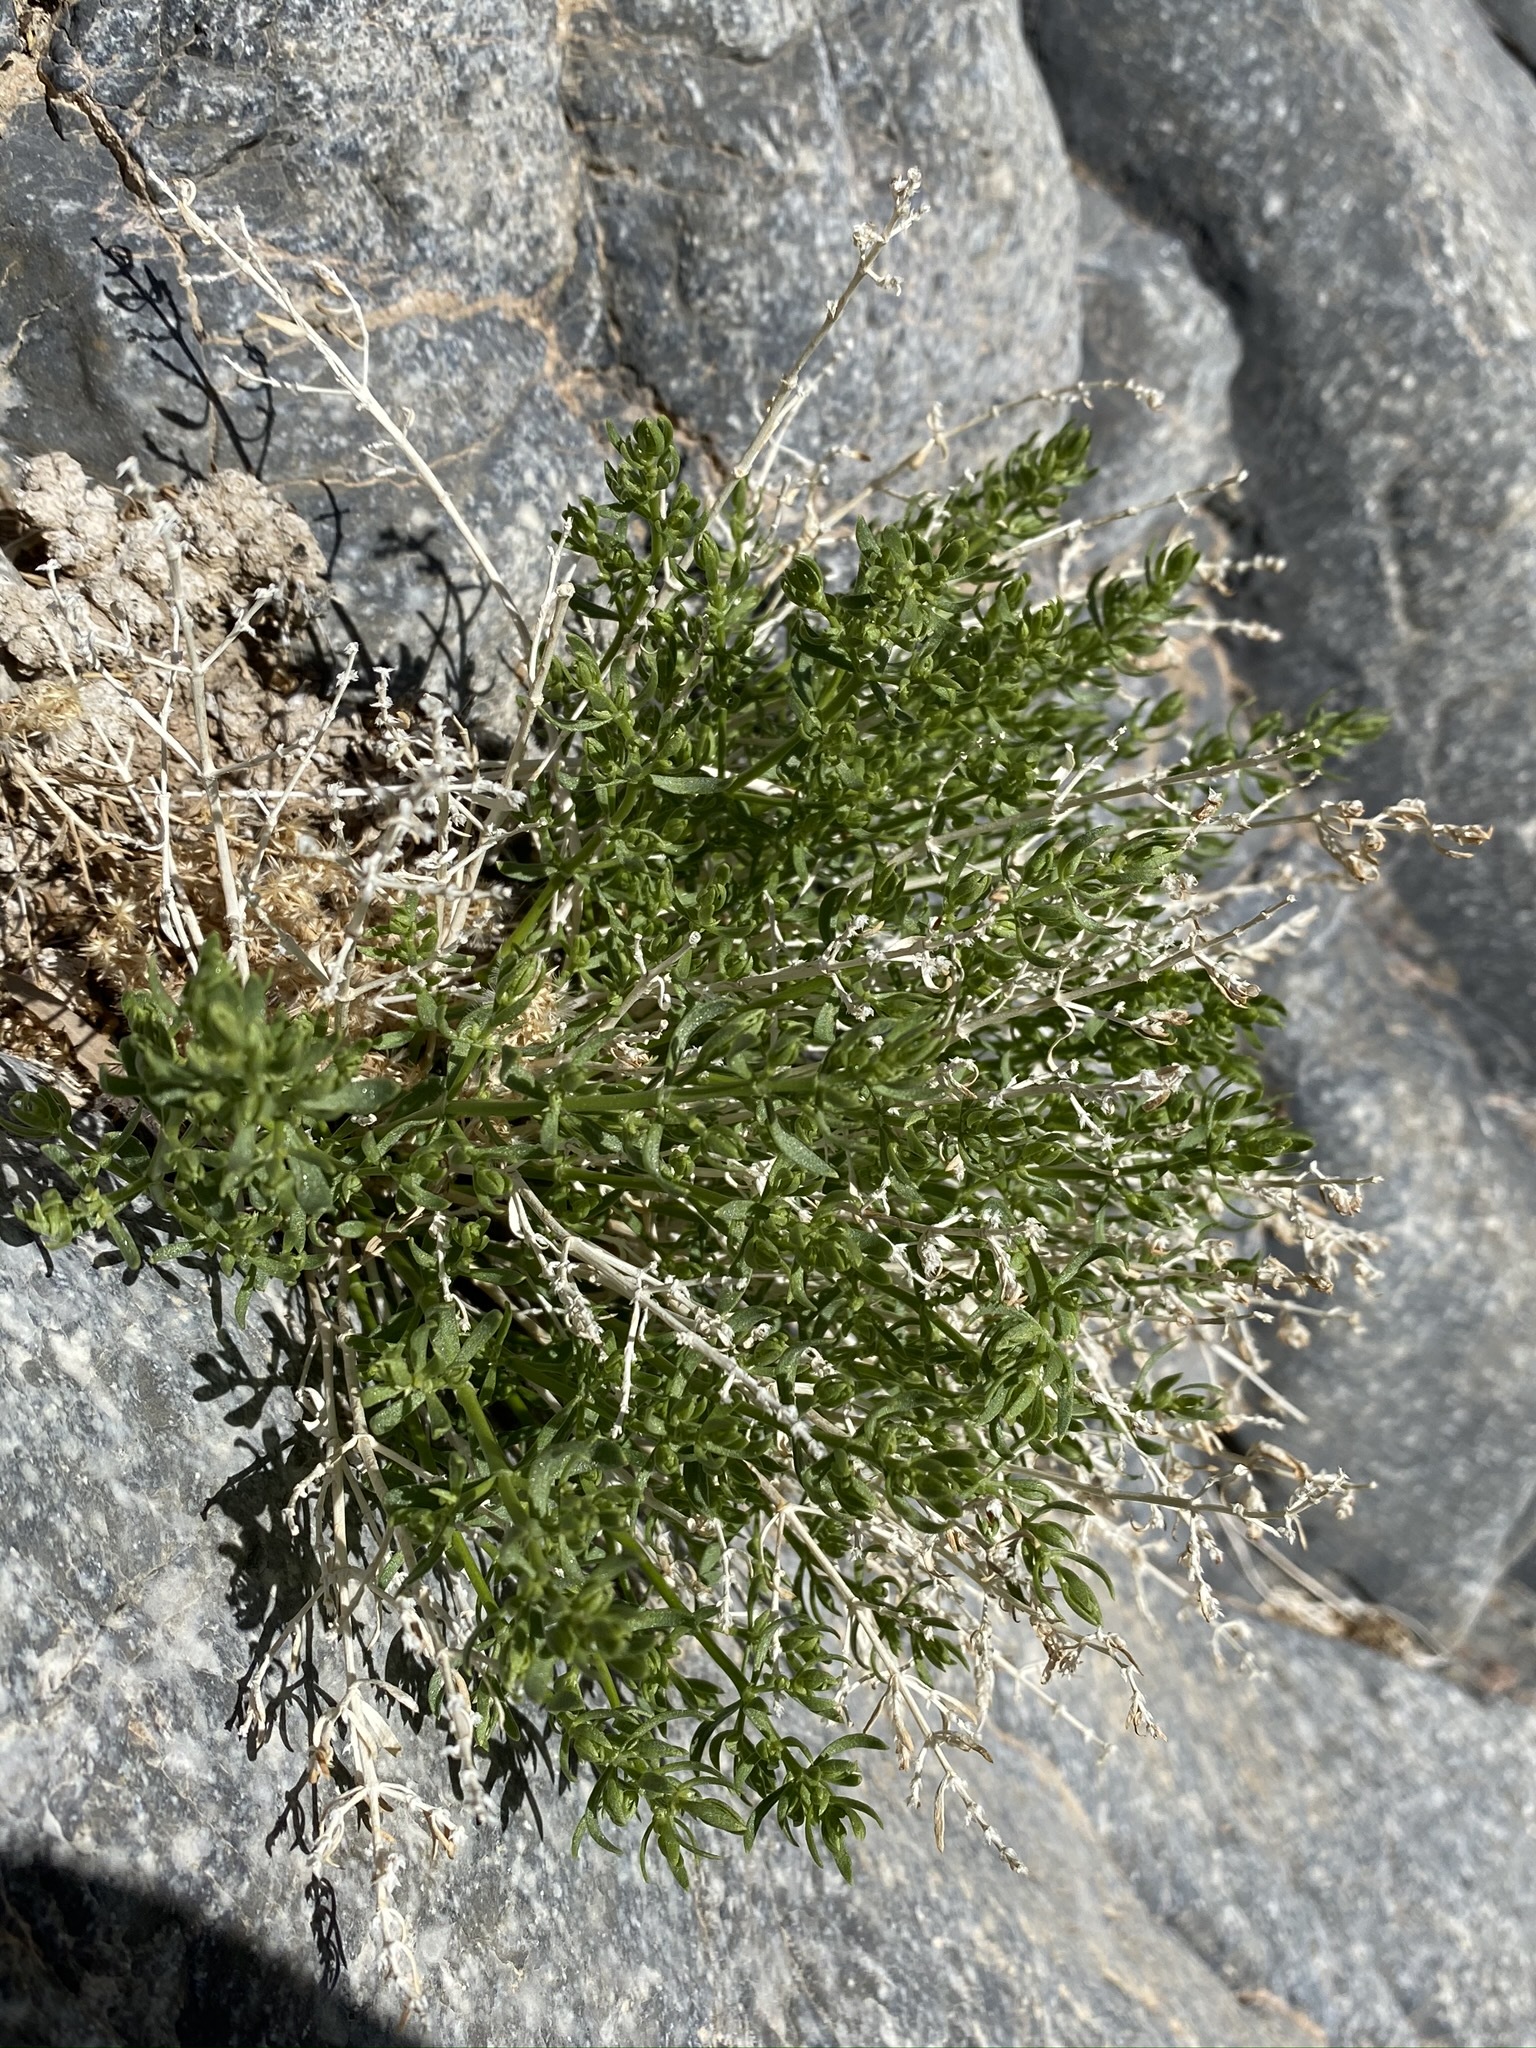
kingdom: Plantae
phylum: Tracheophyta
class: Magnoliopsida
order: Caryophyllales
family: Caryophyllaceae
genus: Scopulophila
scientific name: Scopulophila rixfordii
